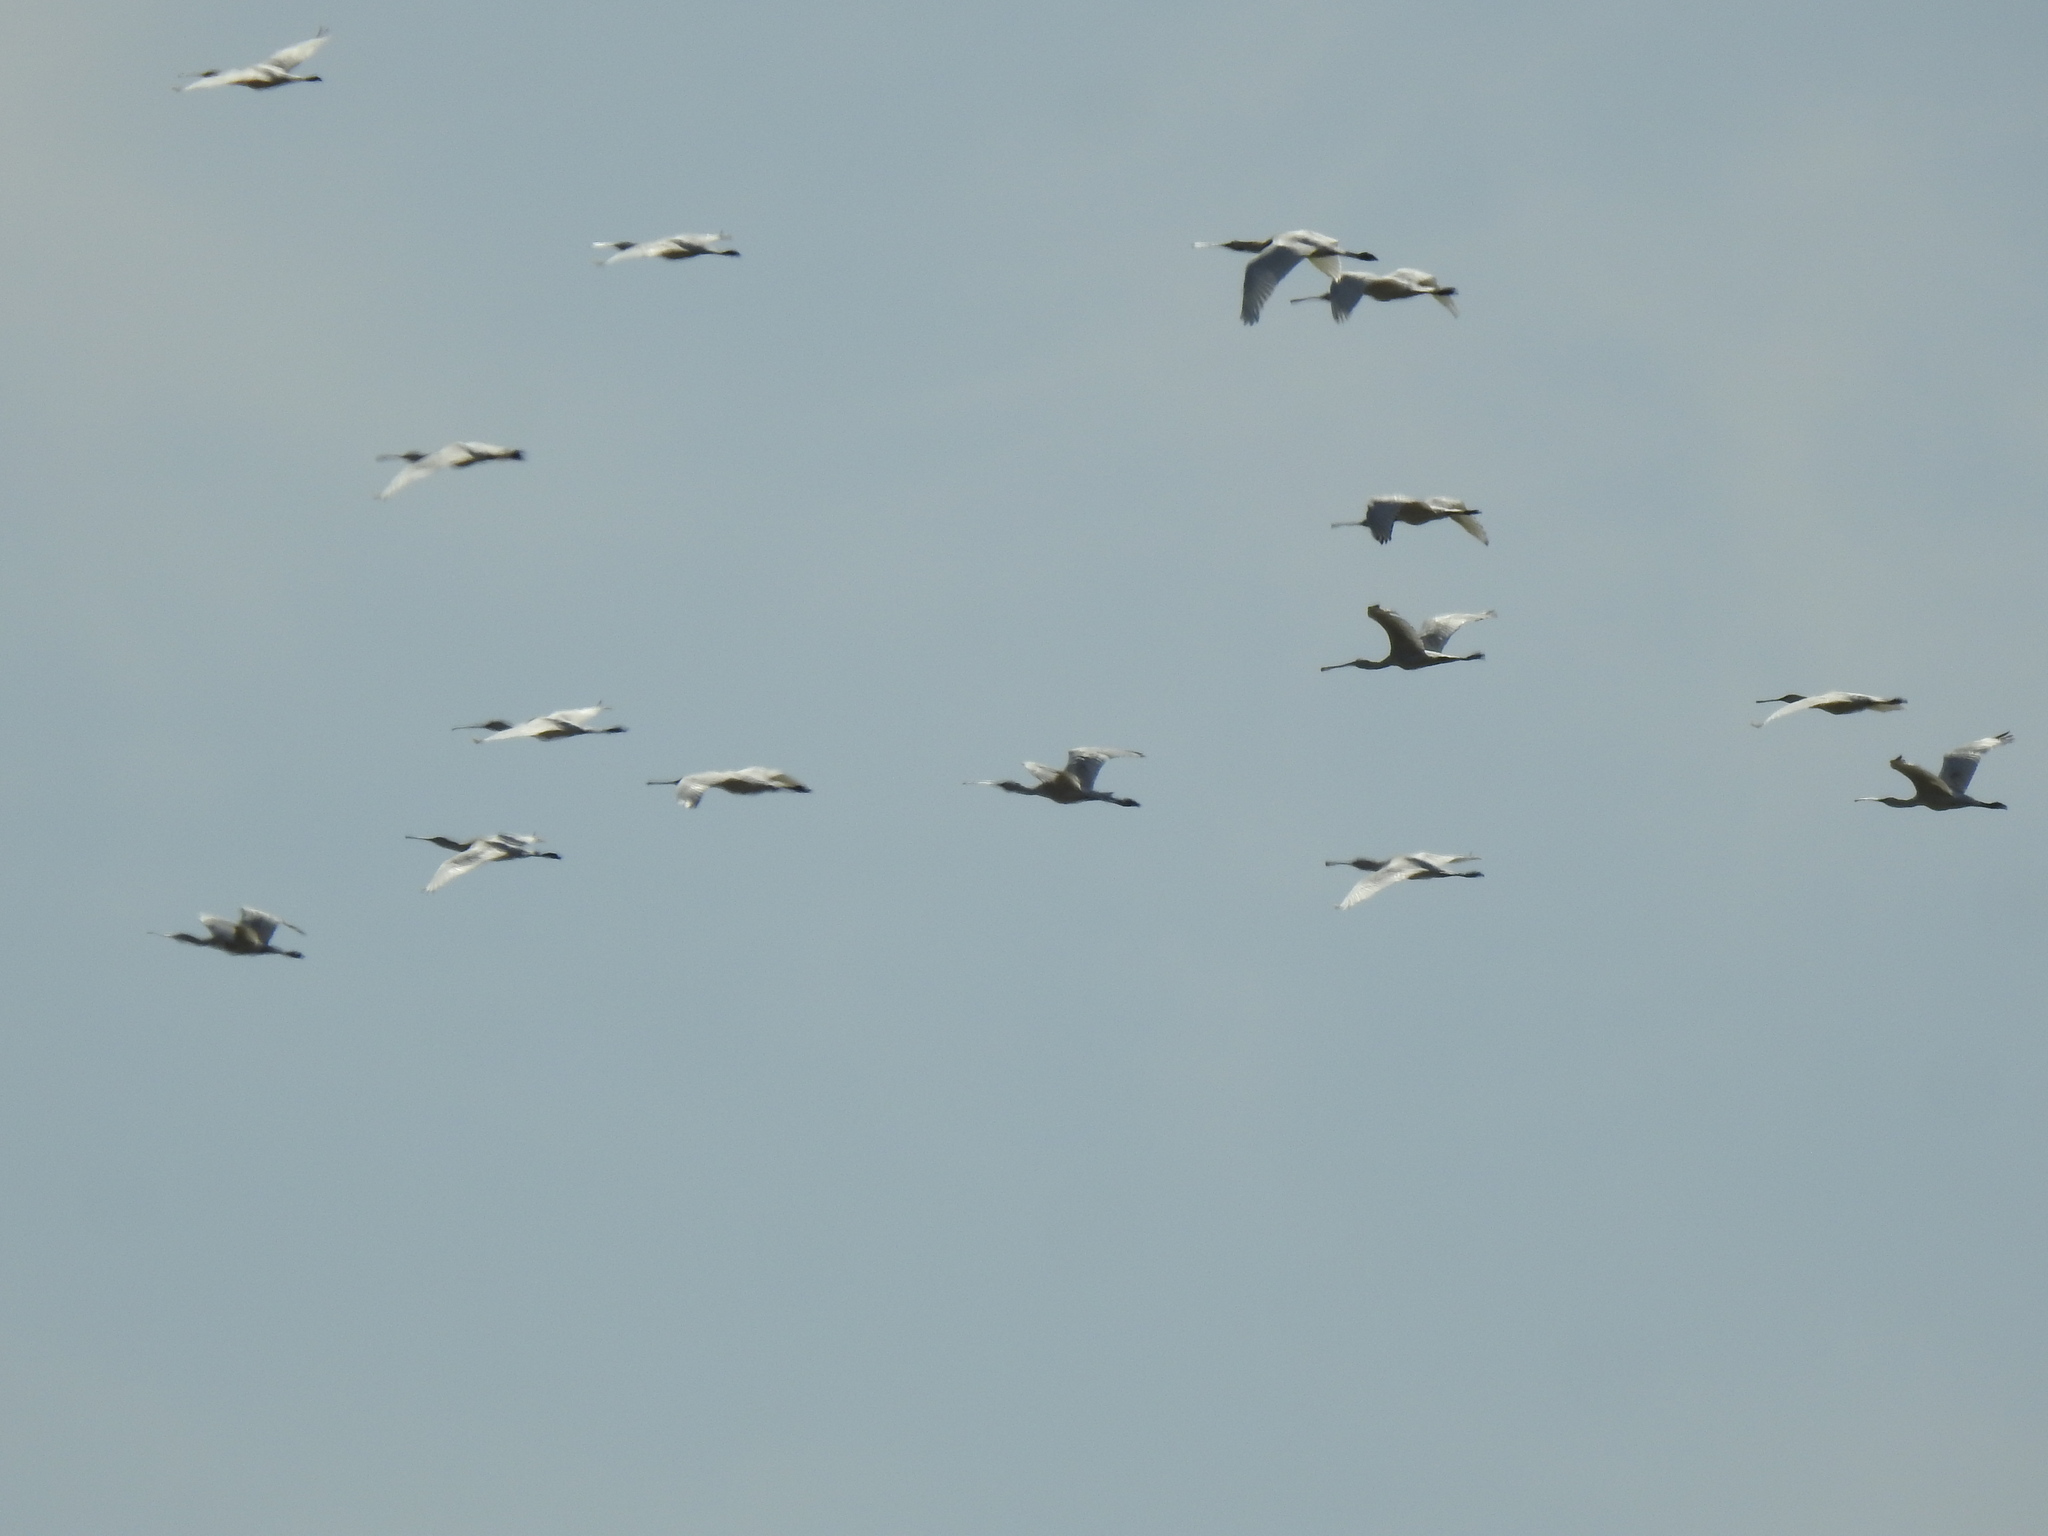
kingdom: Animalia
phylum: Chordata
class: Aves
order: Pelecaniformes
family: Threskiornithidae
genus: Platalea
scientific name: Platalea leucorodia
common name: Eurasian spoonbill
